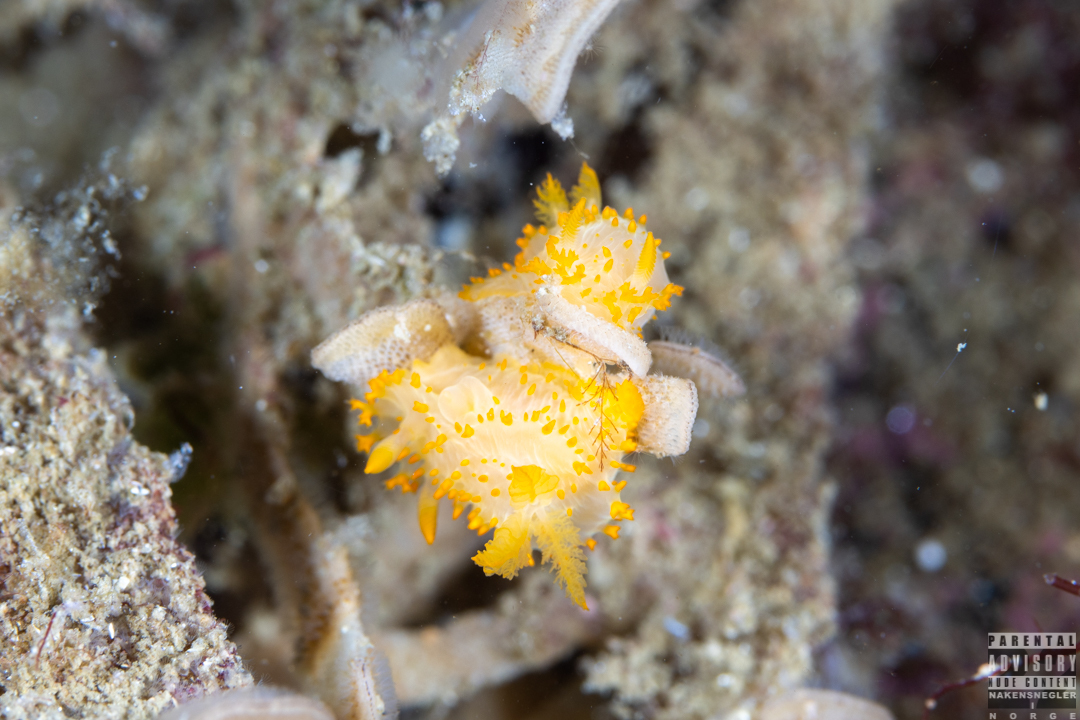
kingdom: Animalia
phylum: Mollusca
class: Gastropoda
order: Nudibranchia
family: Polyceridae
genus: Crimora
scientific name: Crimora papillata
